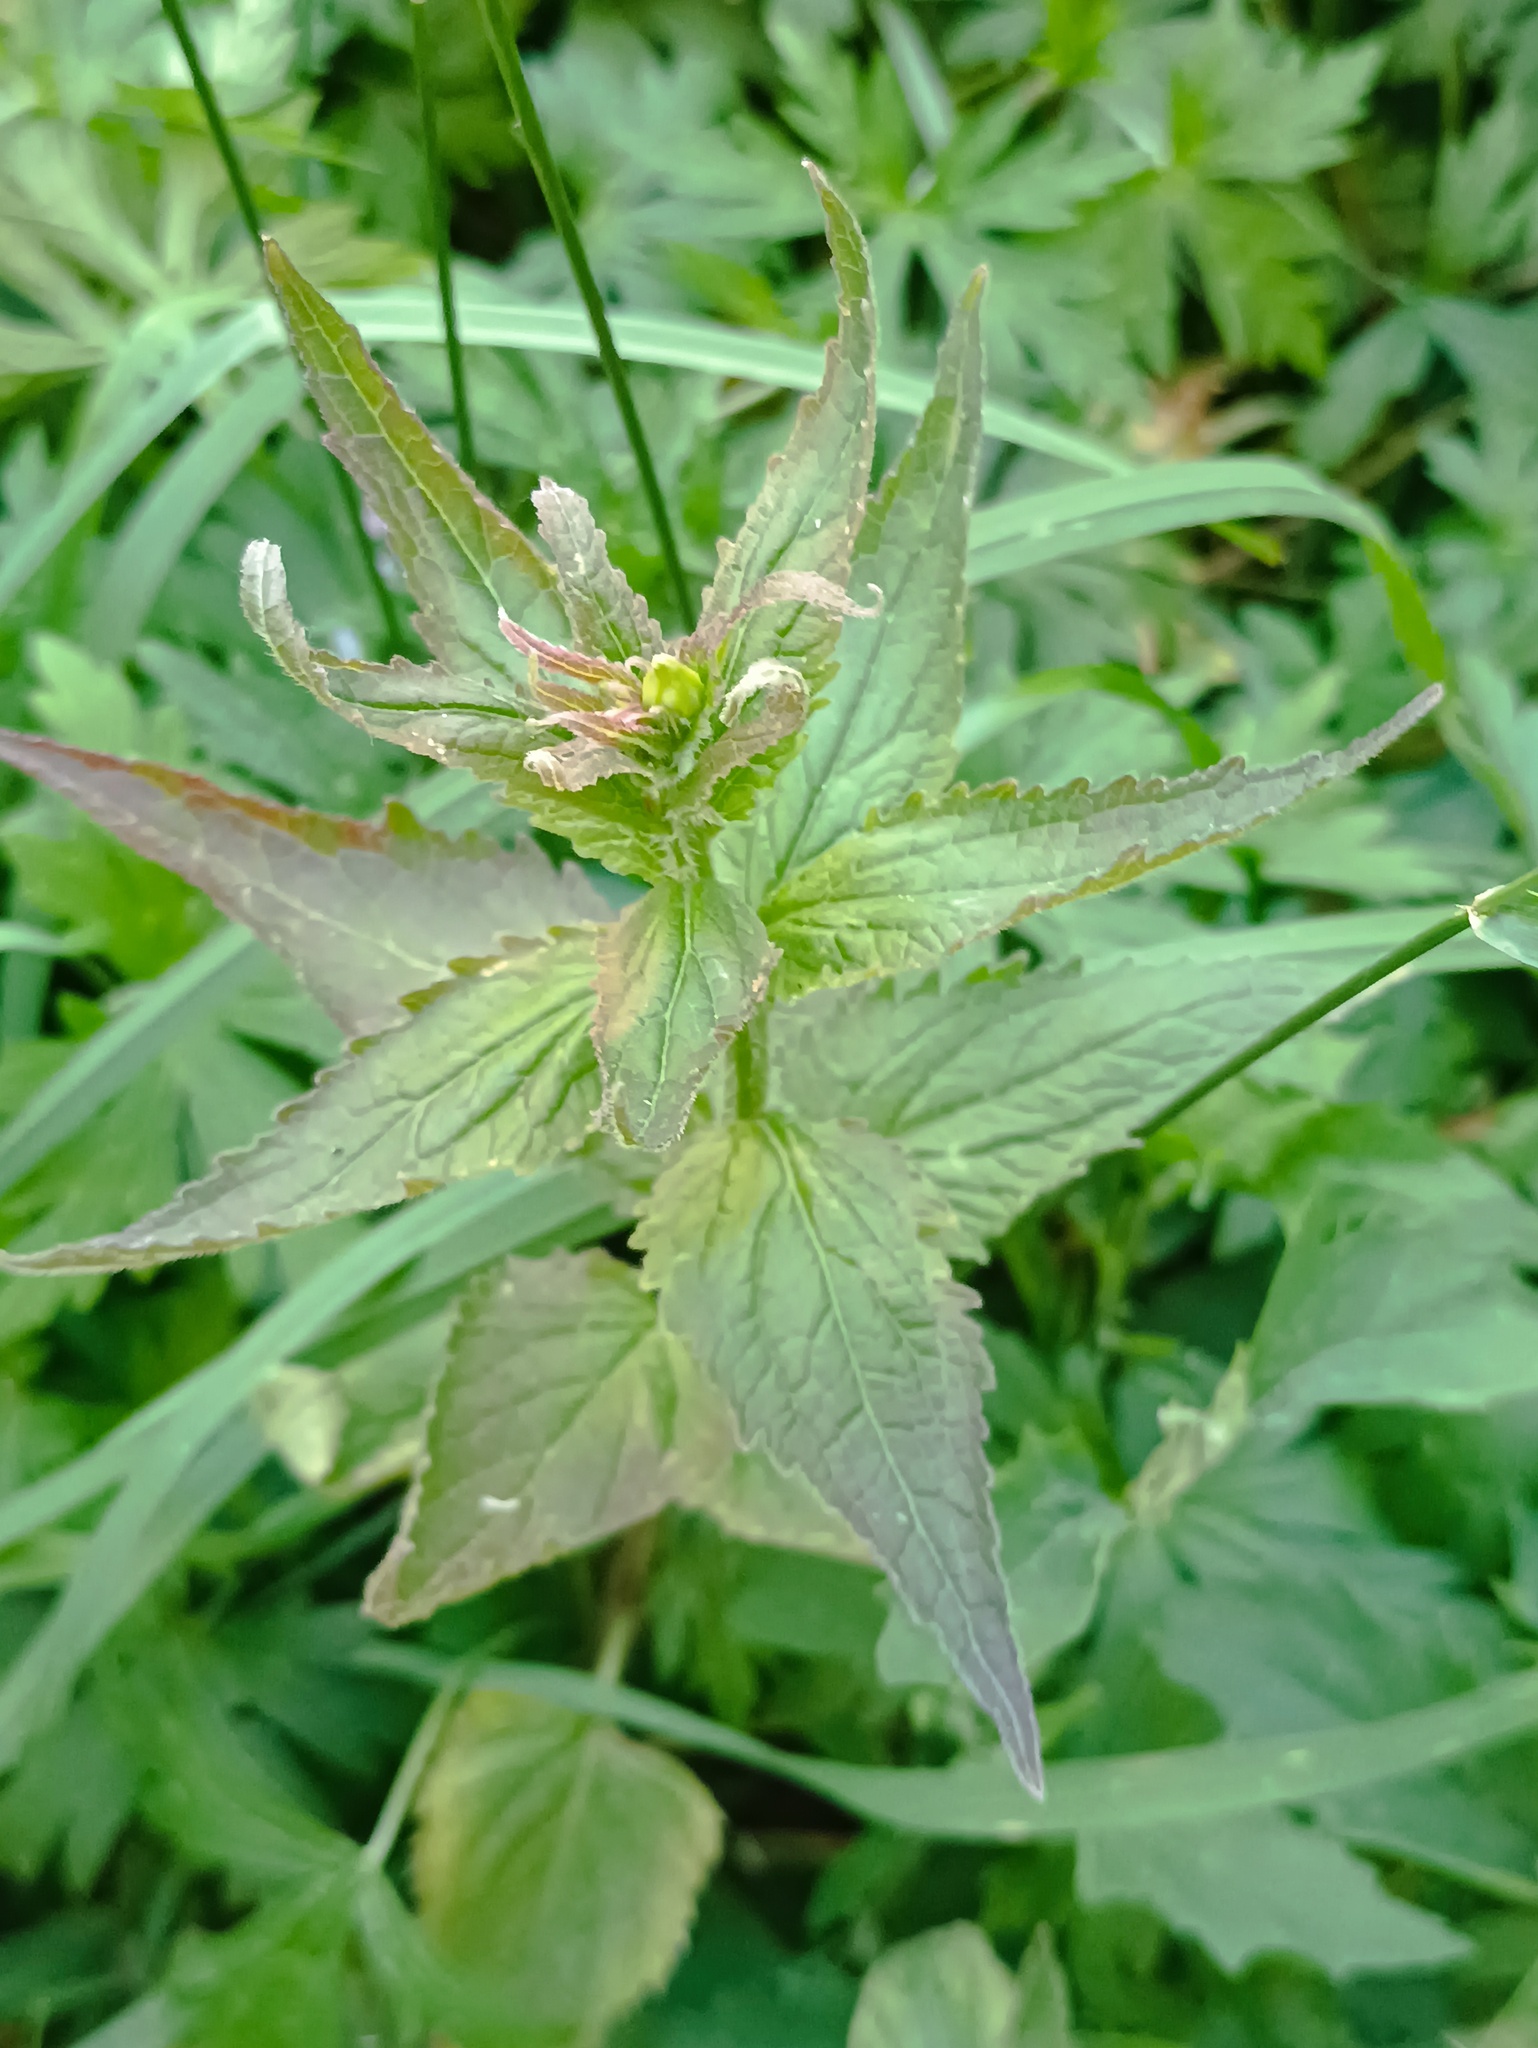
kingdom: Plantae
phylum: Tracheophyta
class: Magnoliopsida
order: Asterales
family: Campanulaceae
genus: Campanula
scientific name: Campanula trachelium
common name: Nettle-leaved bellflower
